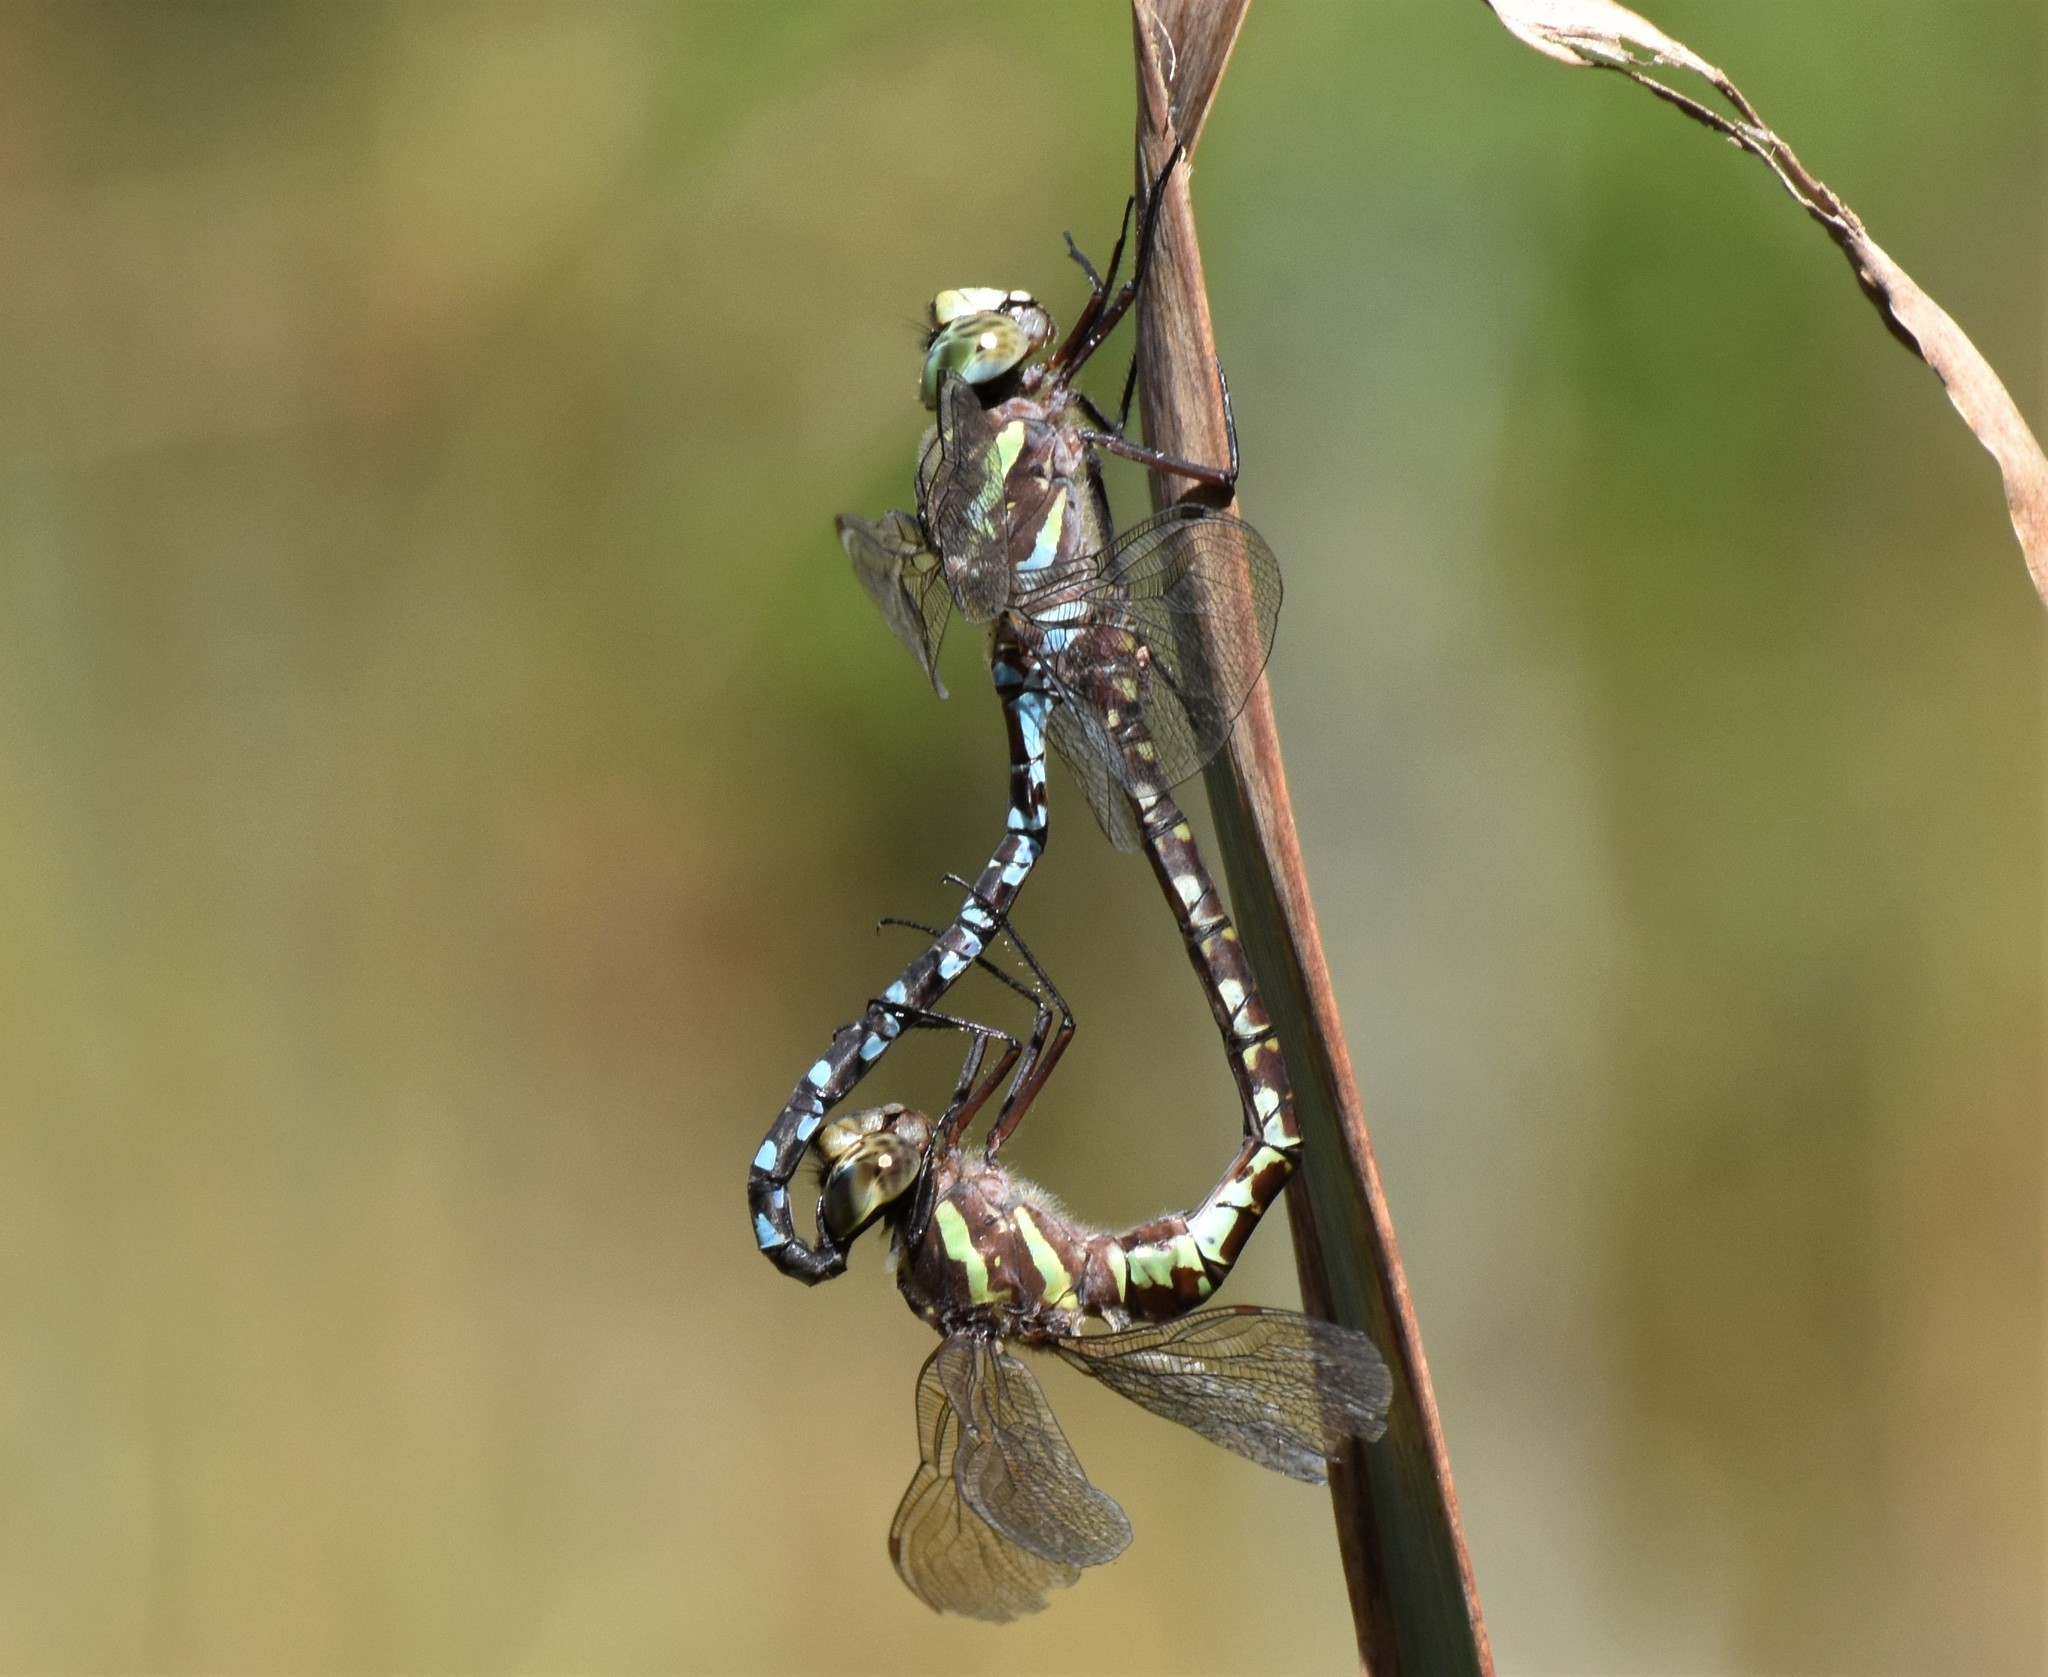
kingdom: Animalia
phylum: Arthropoda
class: Insecta
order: Odonata
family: Aeshnidae
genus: Aeshna
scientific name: Aeshna verticalis
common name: Green-striped darner
